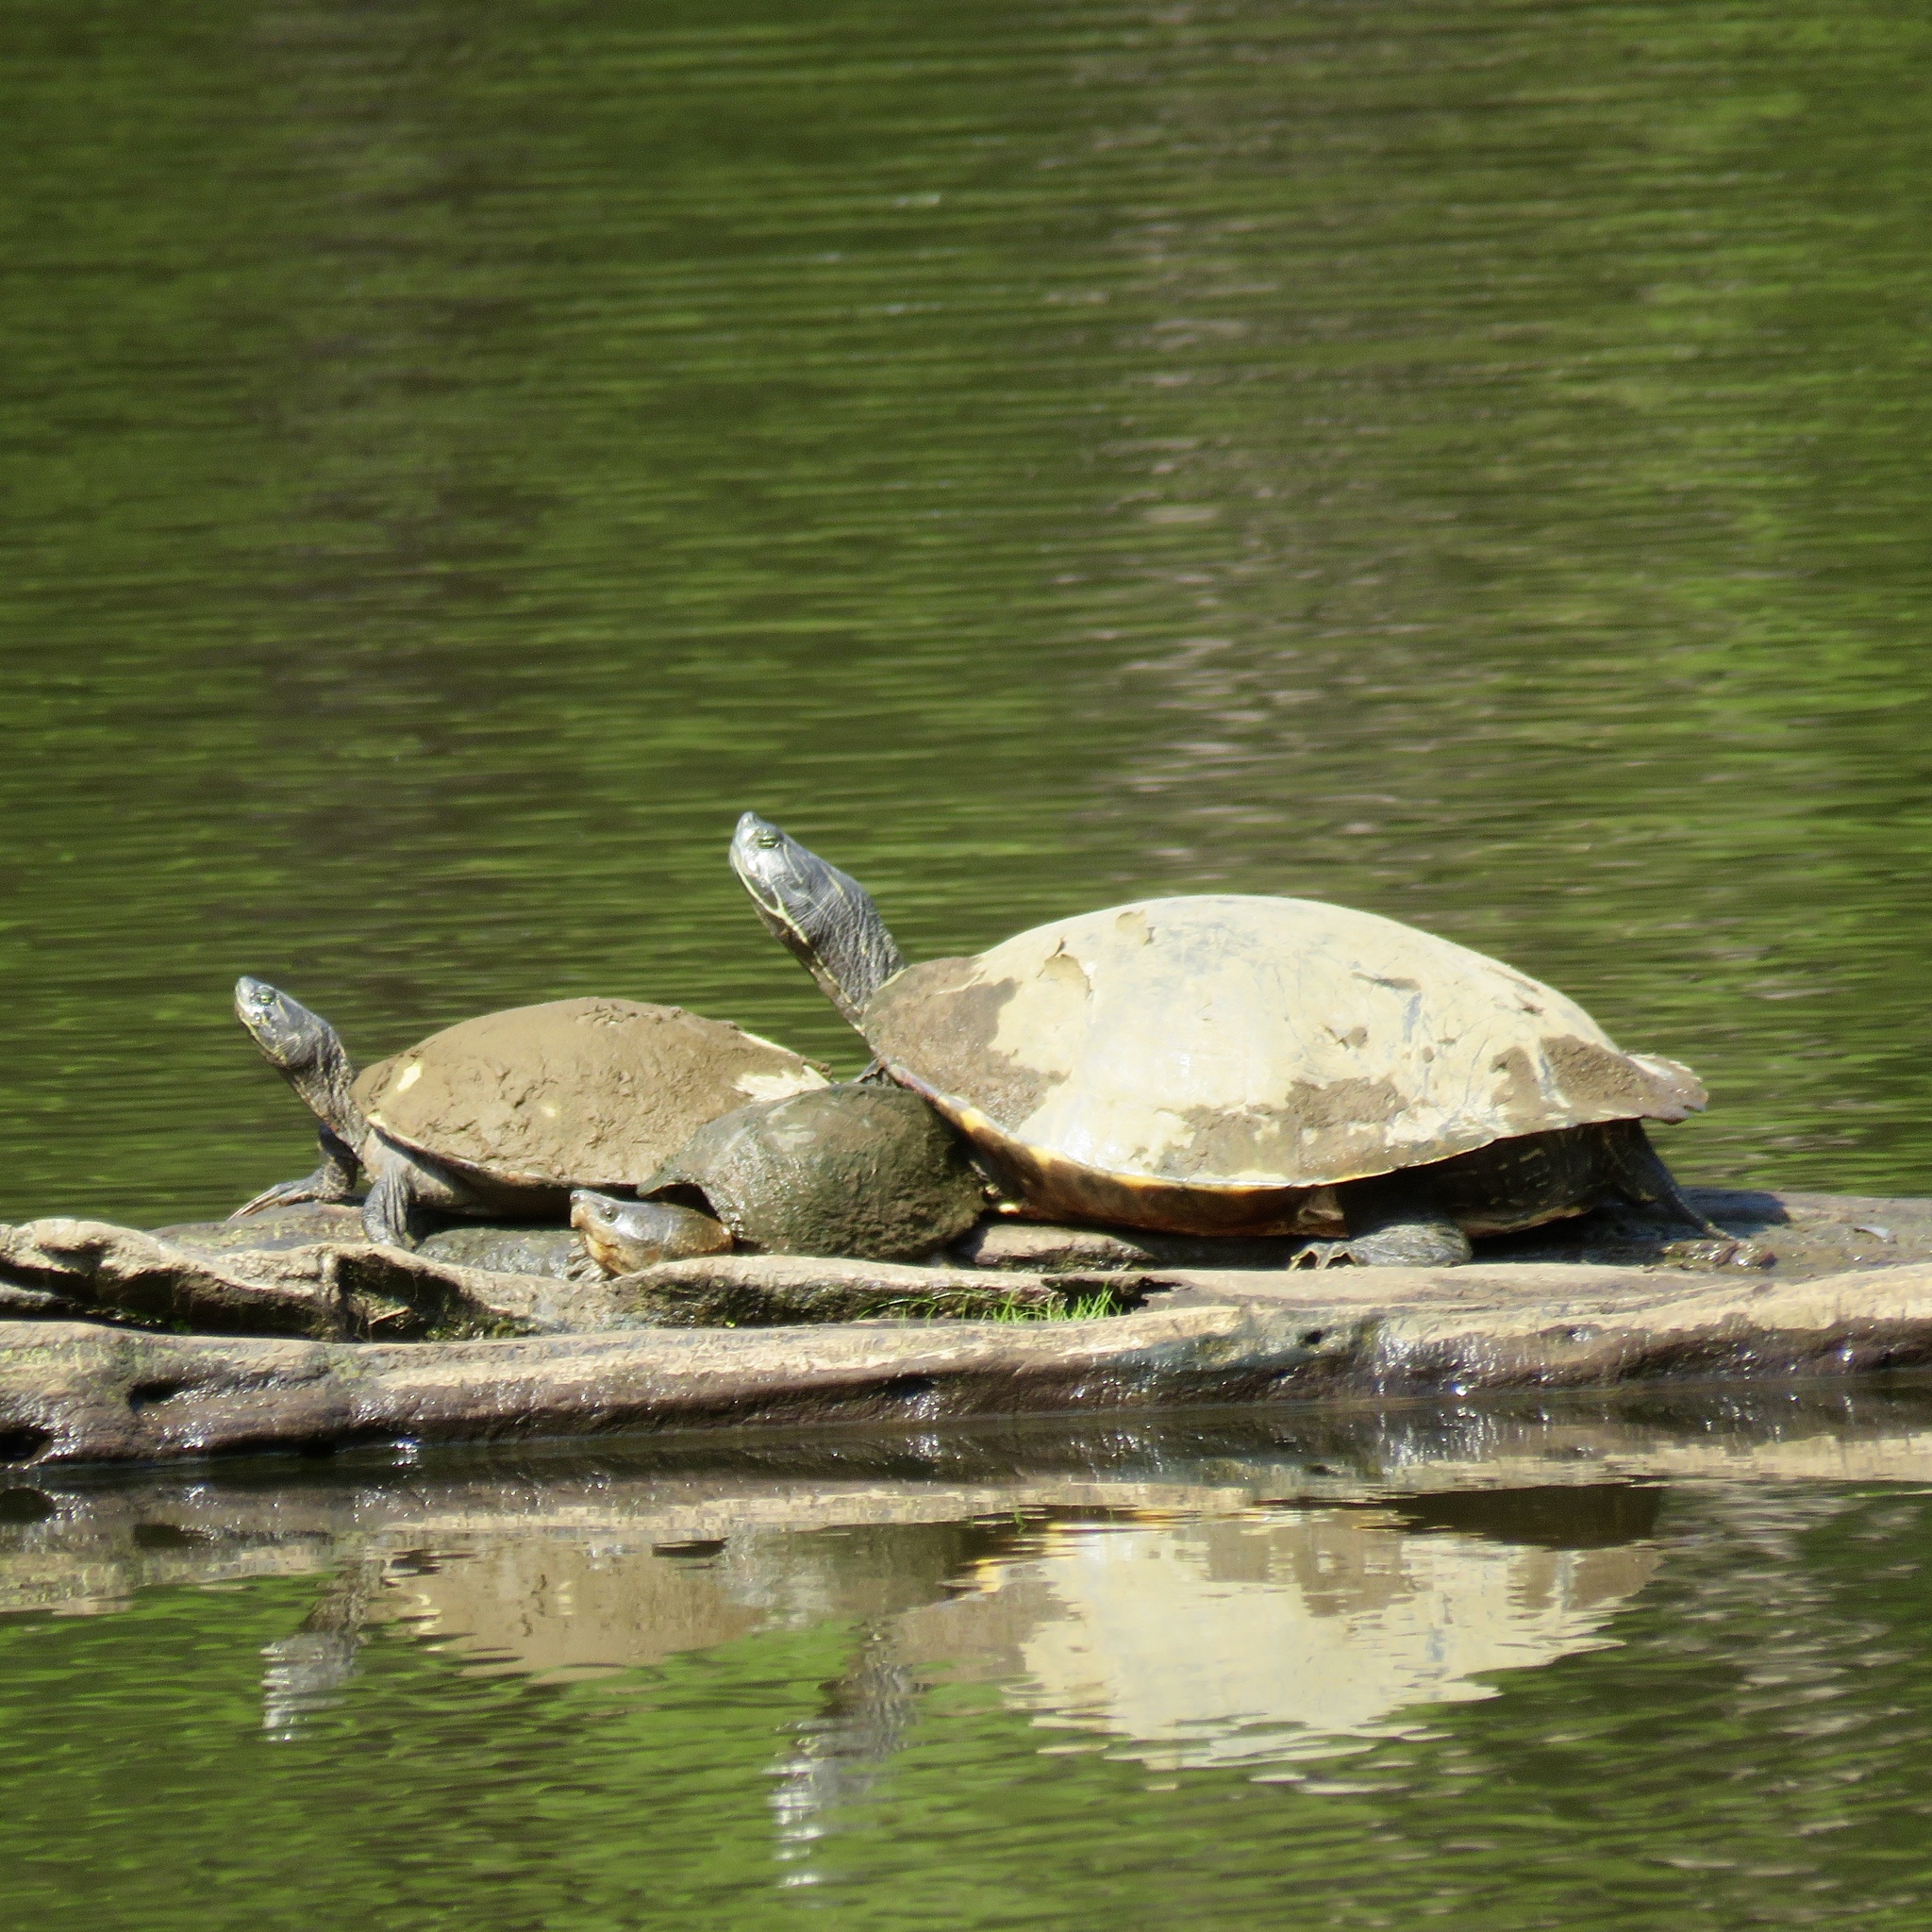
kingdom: Animalia
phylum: Chordata
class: Testudines
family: Emydidae
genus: Pseudemys
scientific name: Pseudemys concinna
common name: Eastern river cooter
